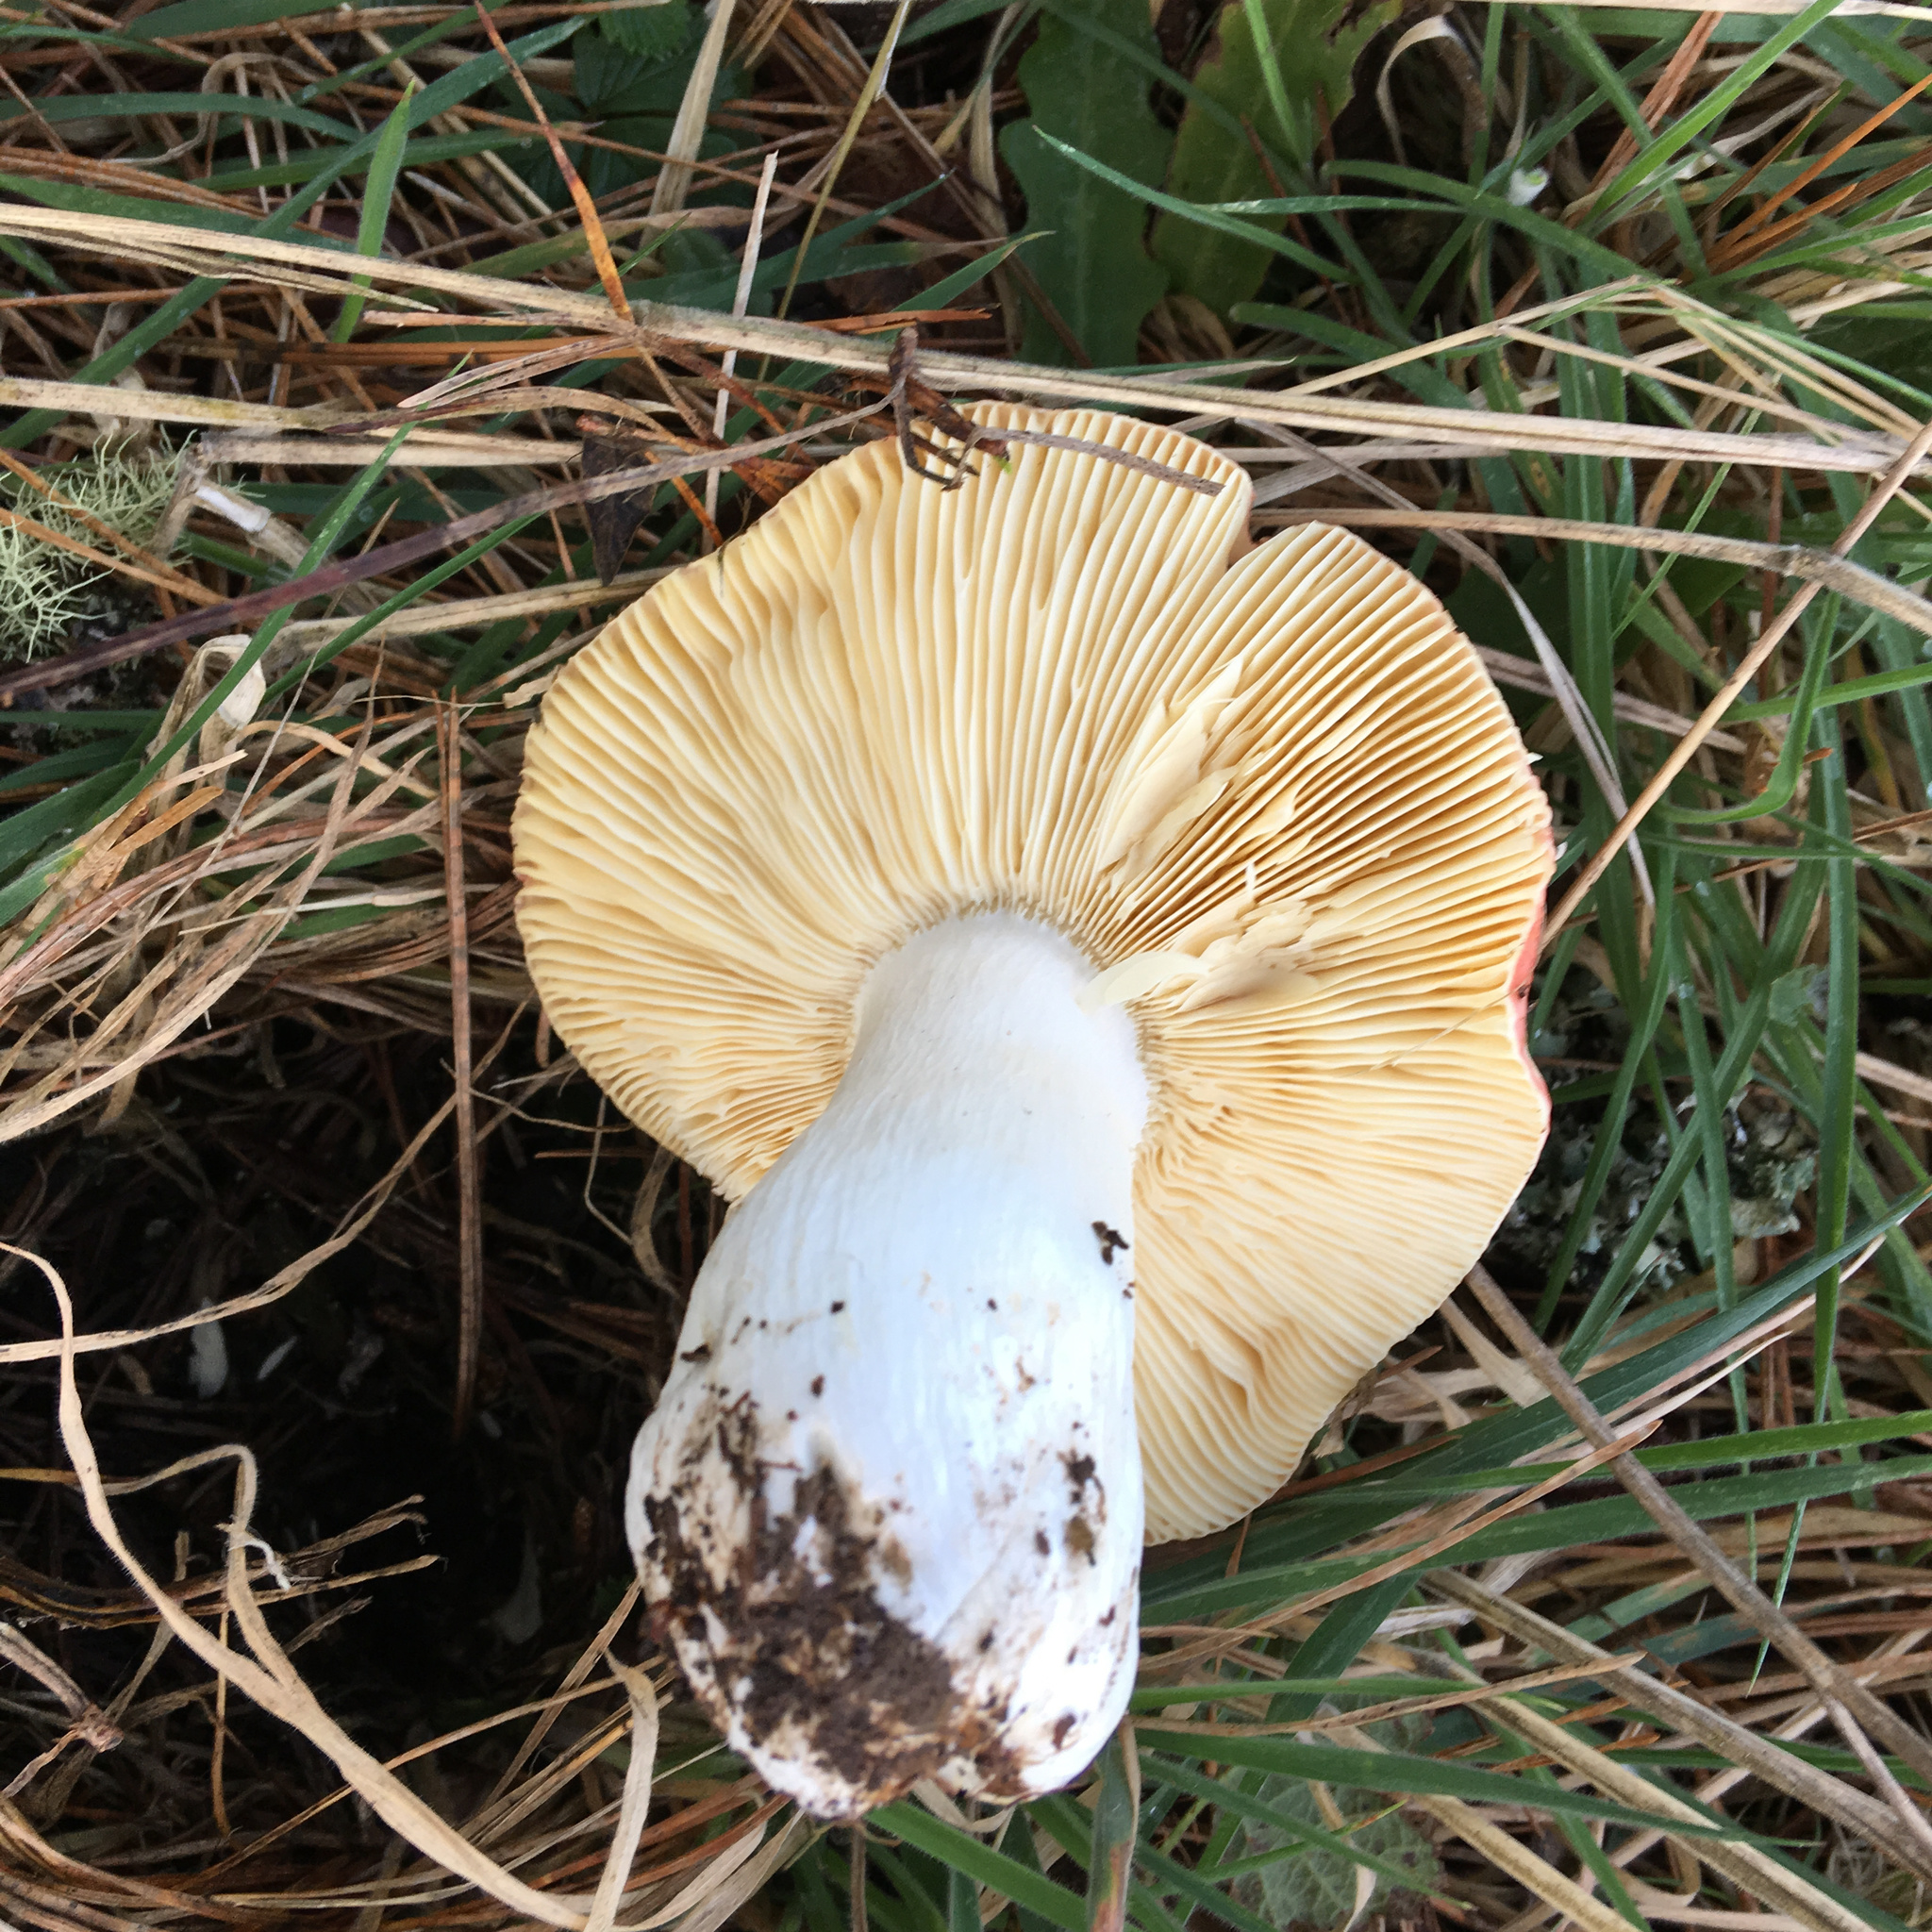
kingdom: Fungi
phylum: Basidiomycota
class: Agaricomycetes
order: Russulales
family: Russulaceae
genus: Russula
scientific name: Russula californiensis
